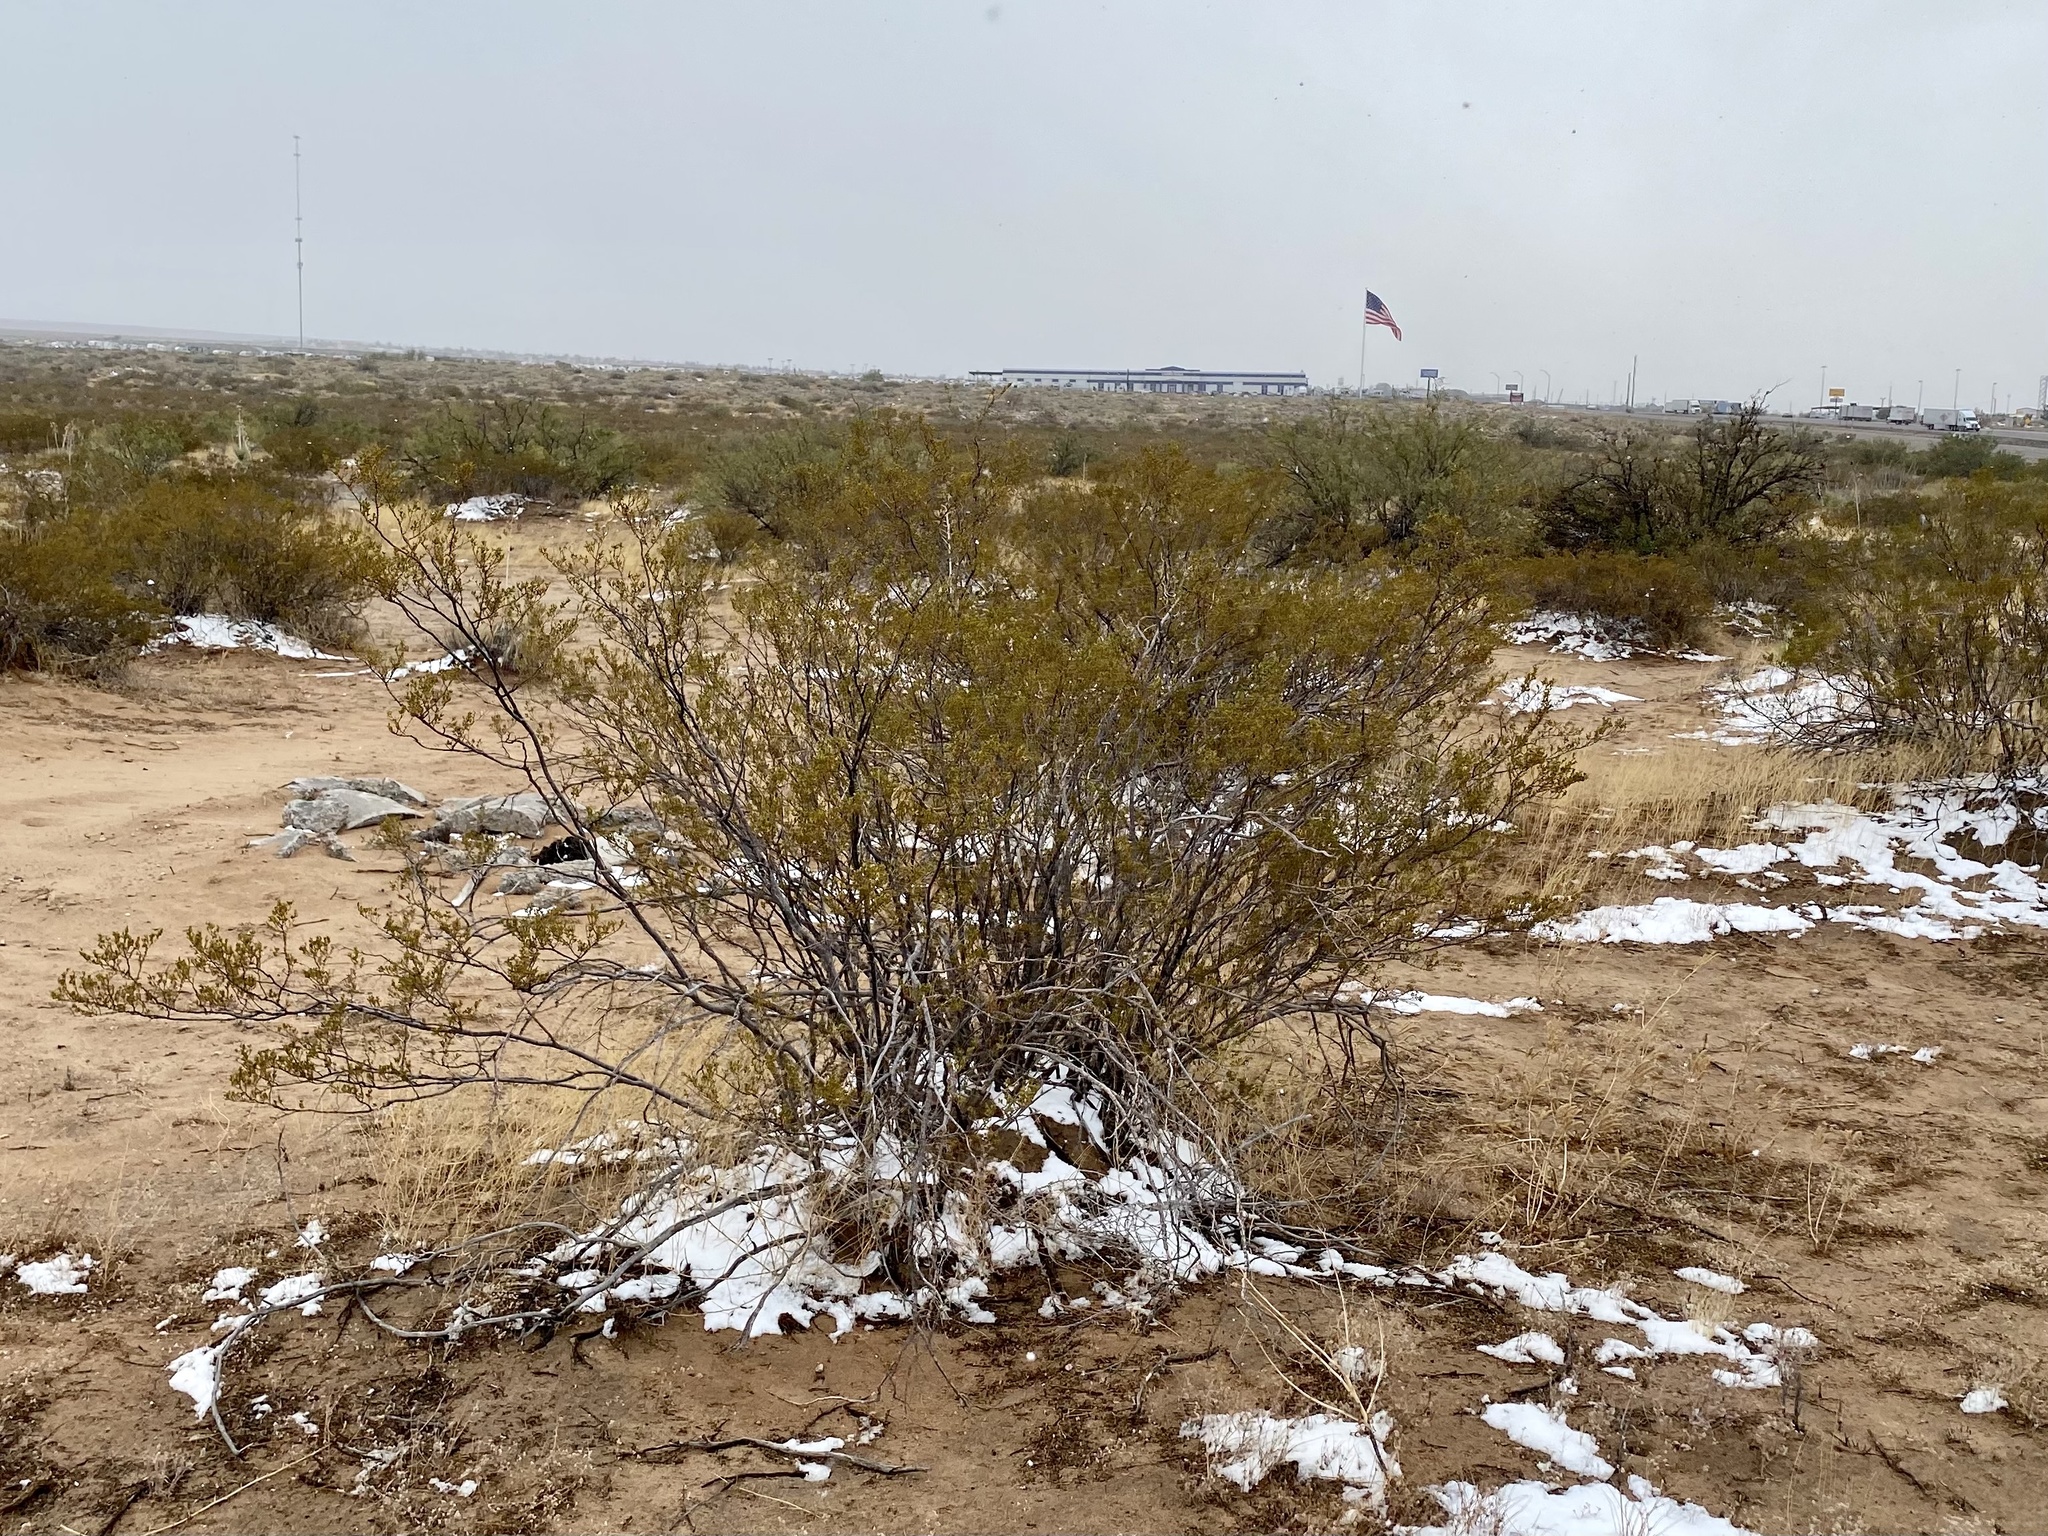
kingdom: Plantae
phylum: Tracheophyta
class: Magnoliopsida
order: Zygophyllales
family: Zygophyllaceae
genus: Larrea
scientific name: Larrea tridentata
